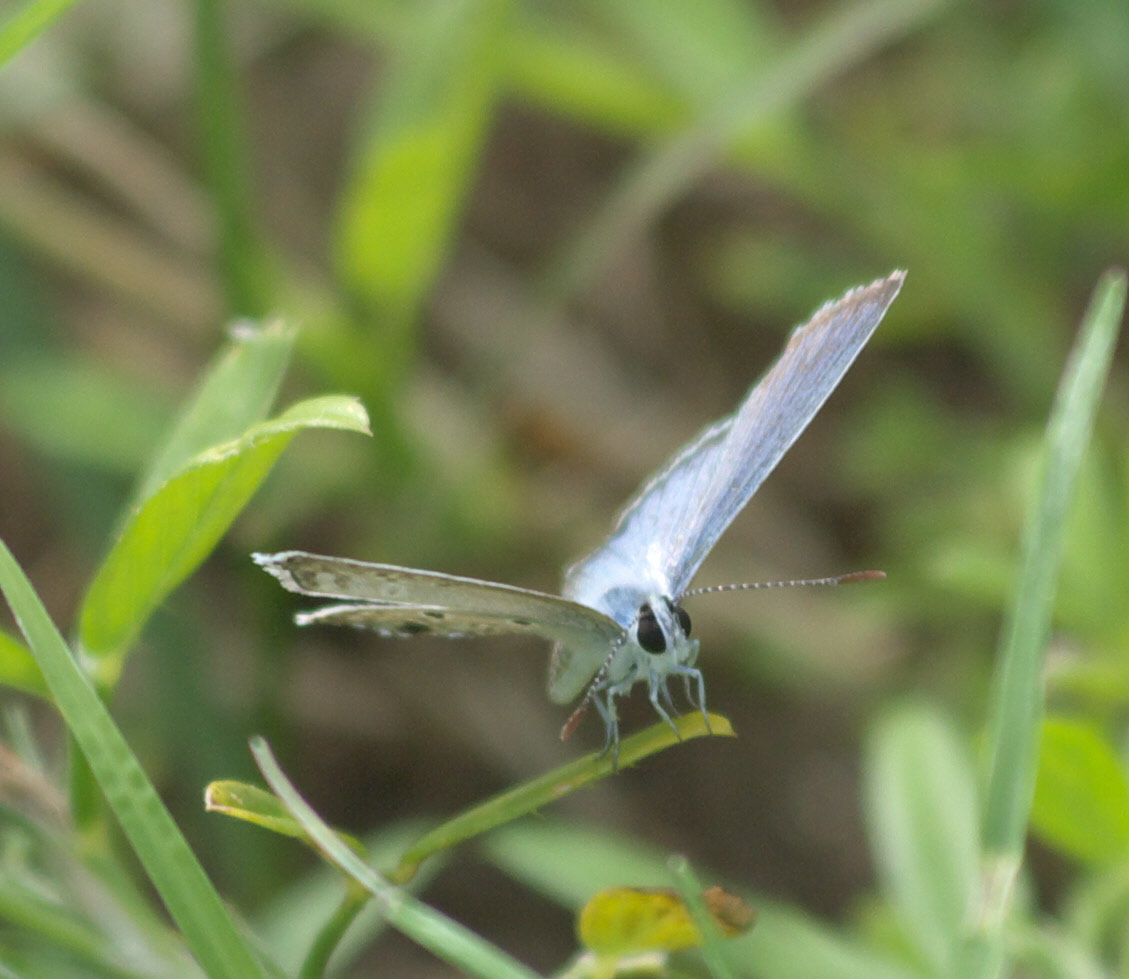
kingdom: Animalia
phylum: Arthropoda
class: Insecta
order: Lepidoptera
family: Lycaenidae
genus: Hemiargus
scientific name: Hemiargus ceraunus
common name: Ceraunus blue
